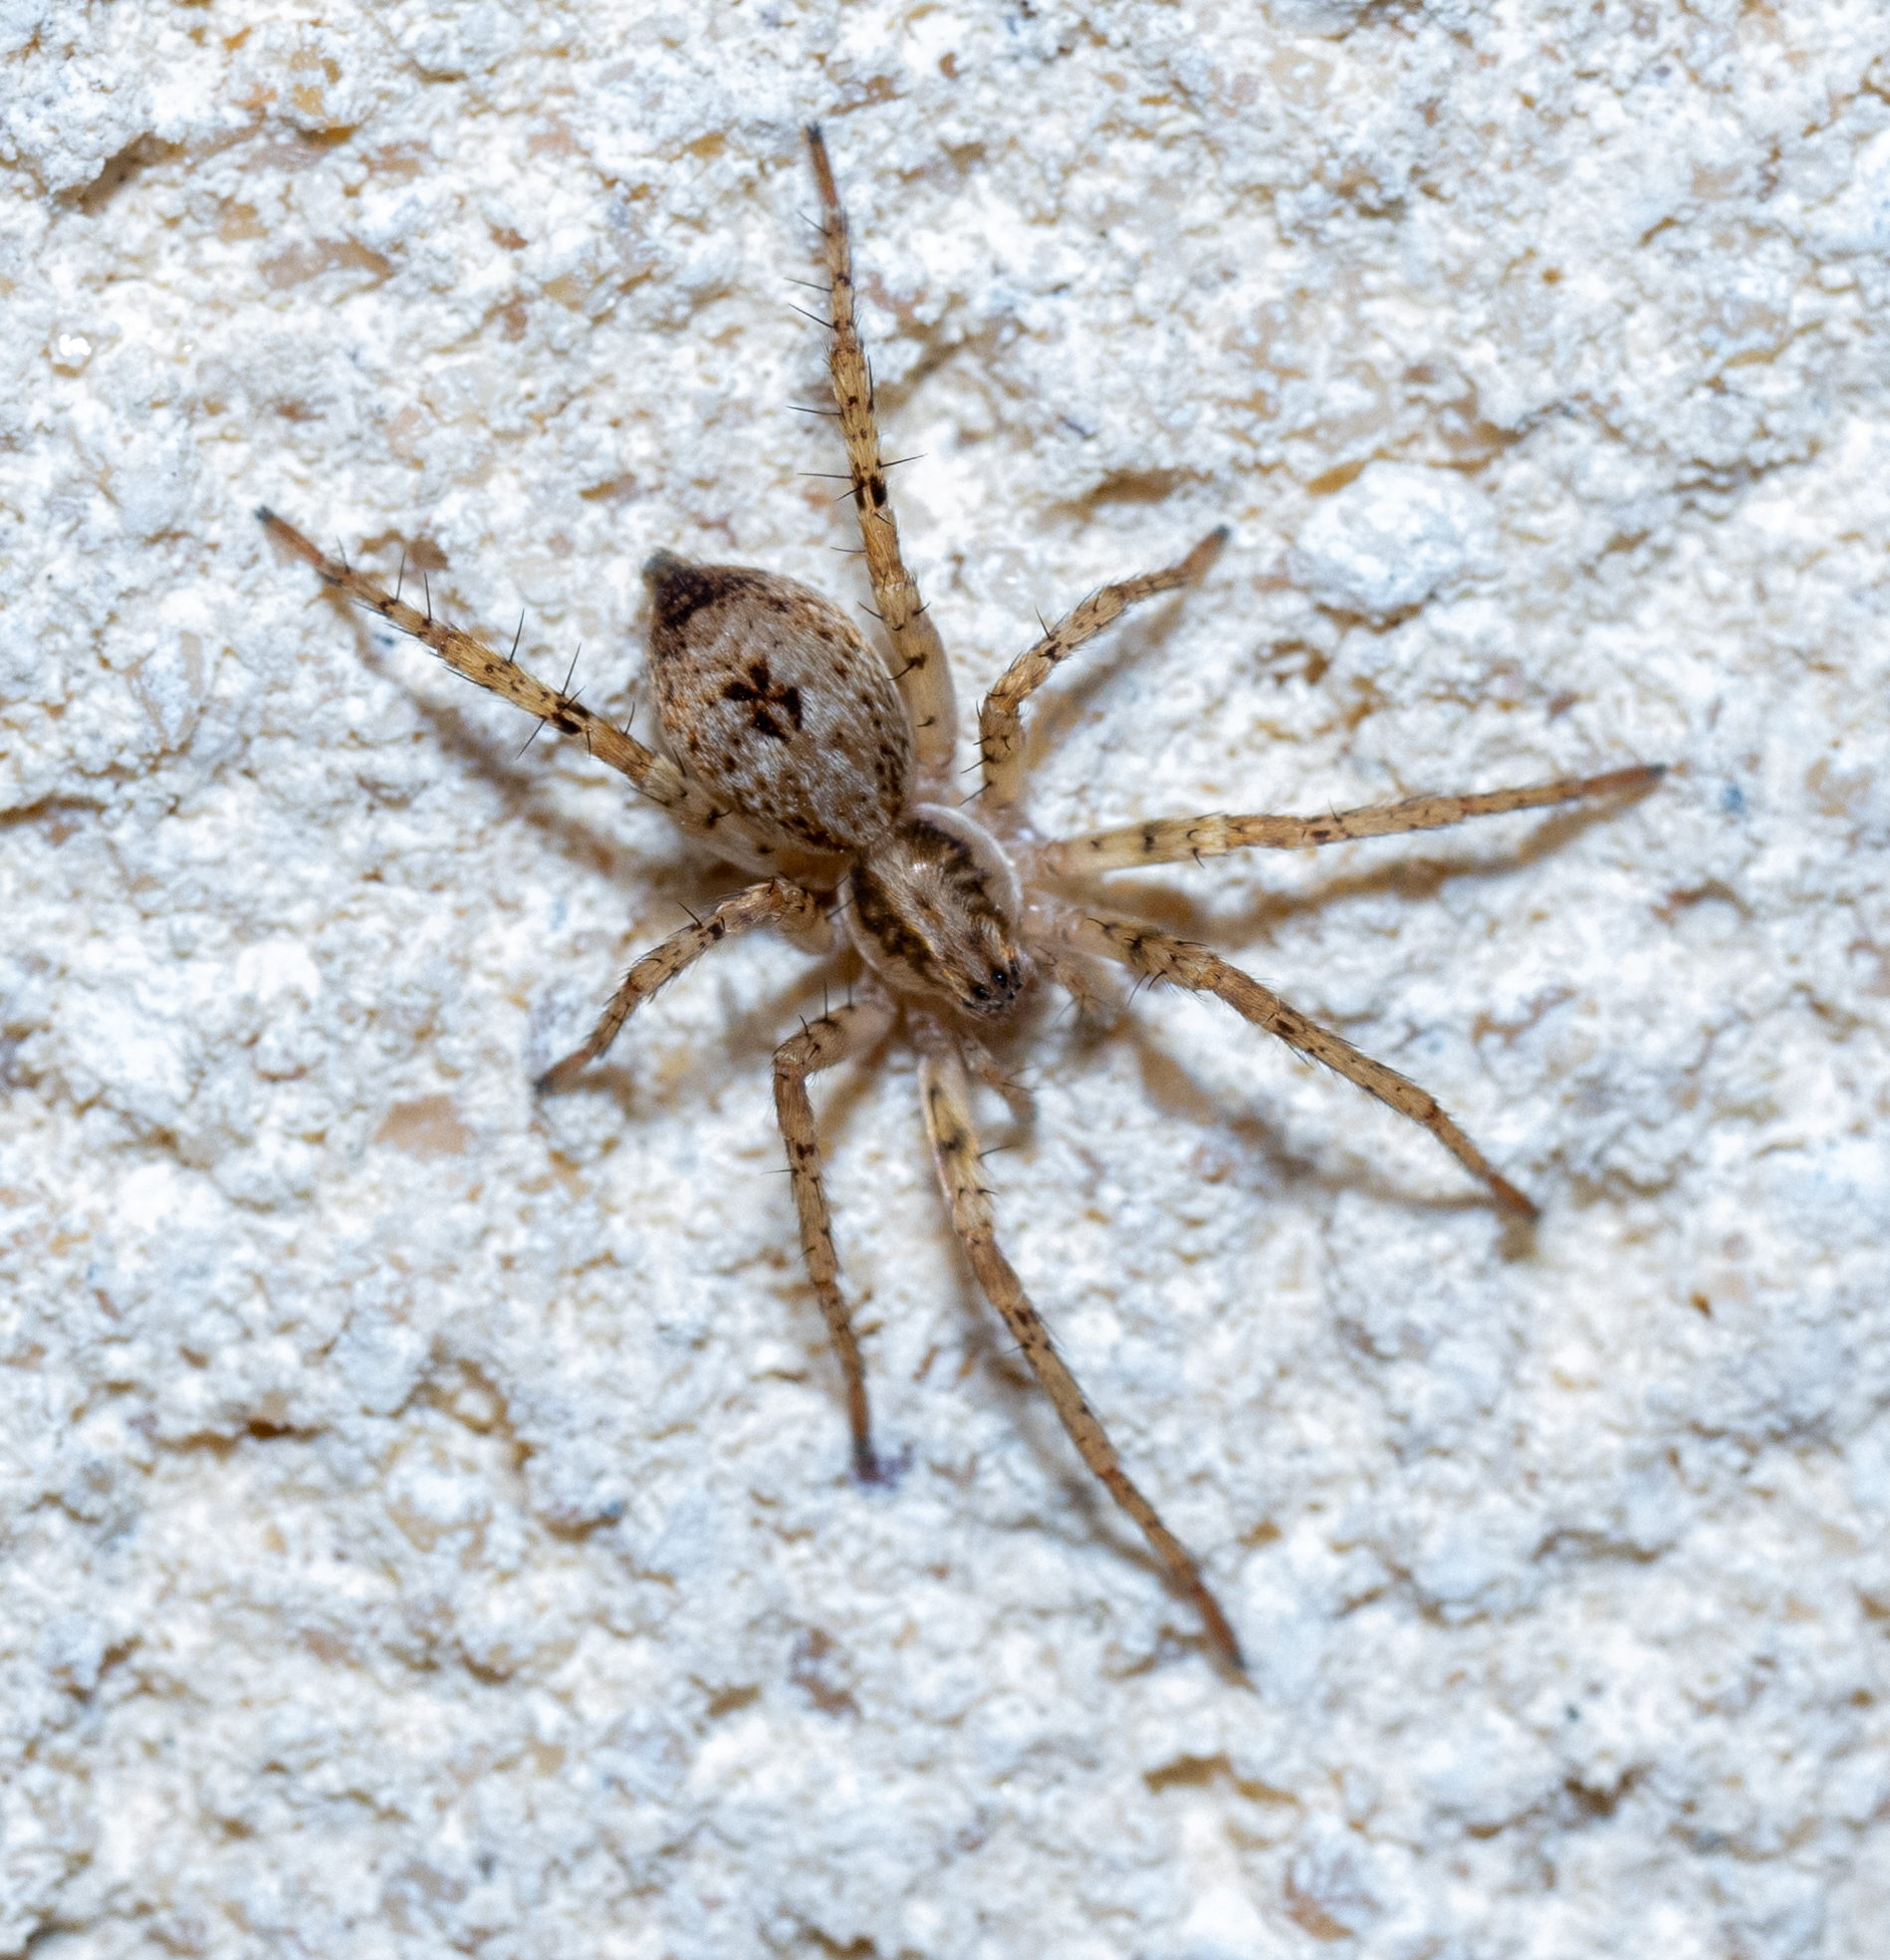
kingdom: Animalia
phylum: Arthropoda
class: Arachnida
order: Araneae
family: Anyphaenidae
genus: Anyphaena
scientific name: Anyphaena accentuata
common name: Buzzing spider
